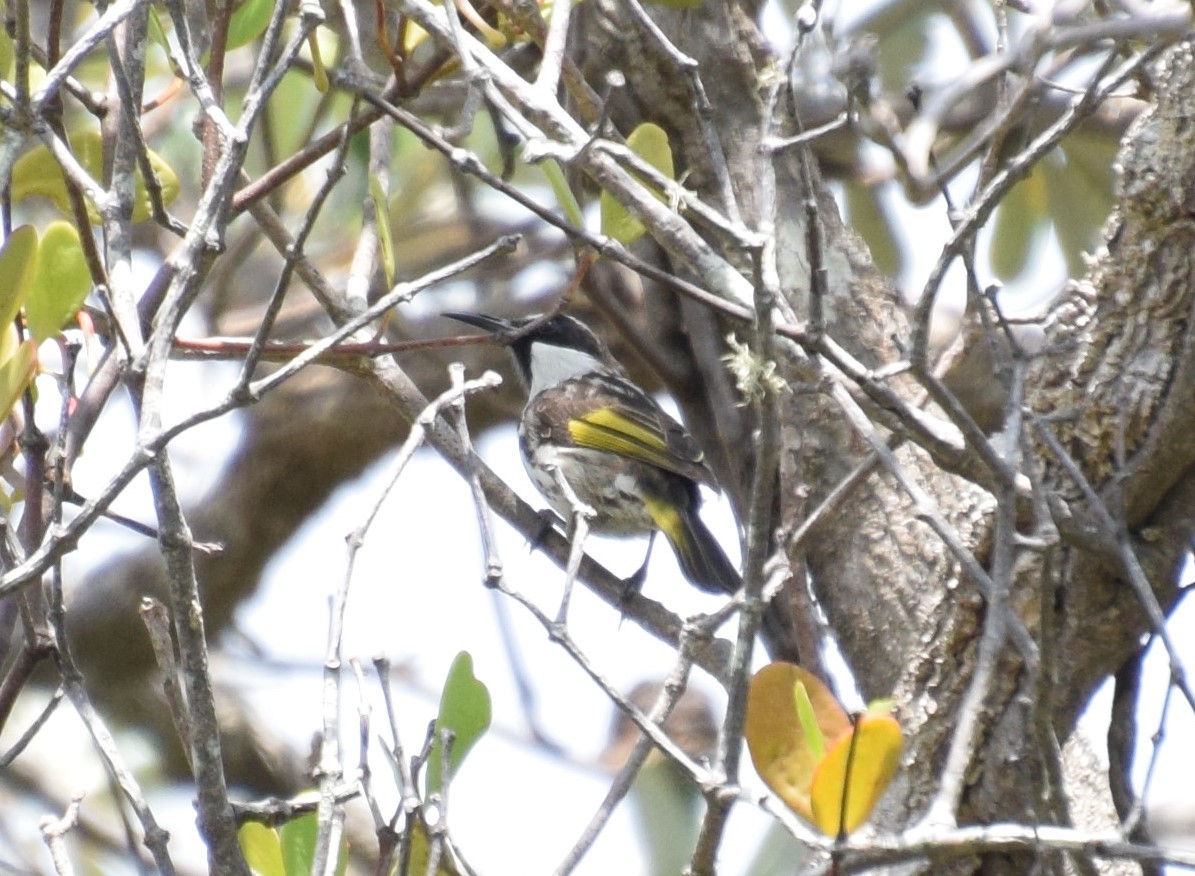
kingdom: Animalia
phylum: Chordata
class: Aves
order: Passeriformes
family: Meliphagidae
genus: Phylidonyris
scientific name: Phylidonyris niger
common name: White-cheeked honeyeater
